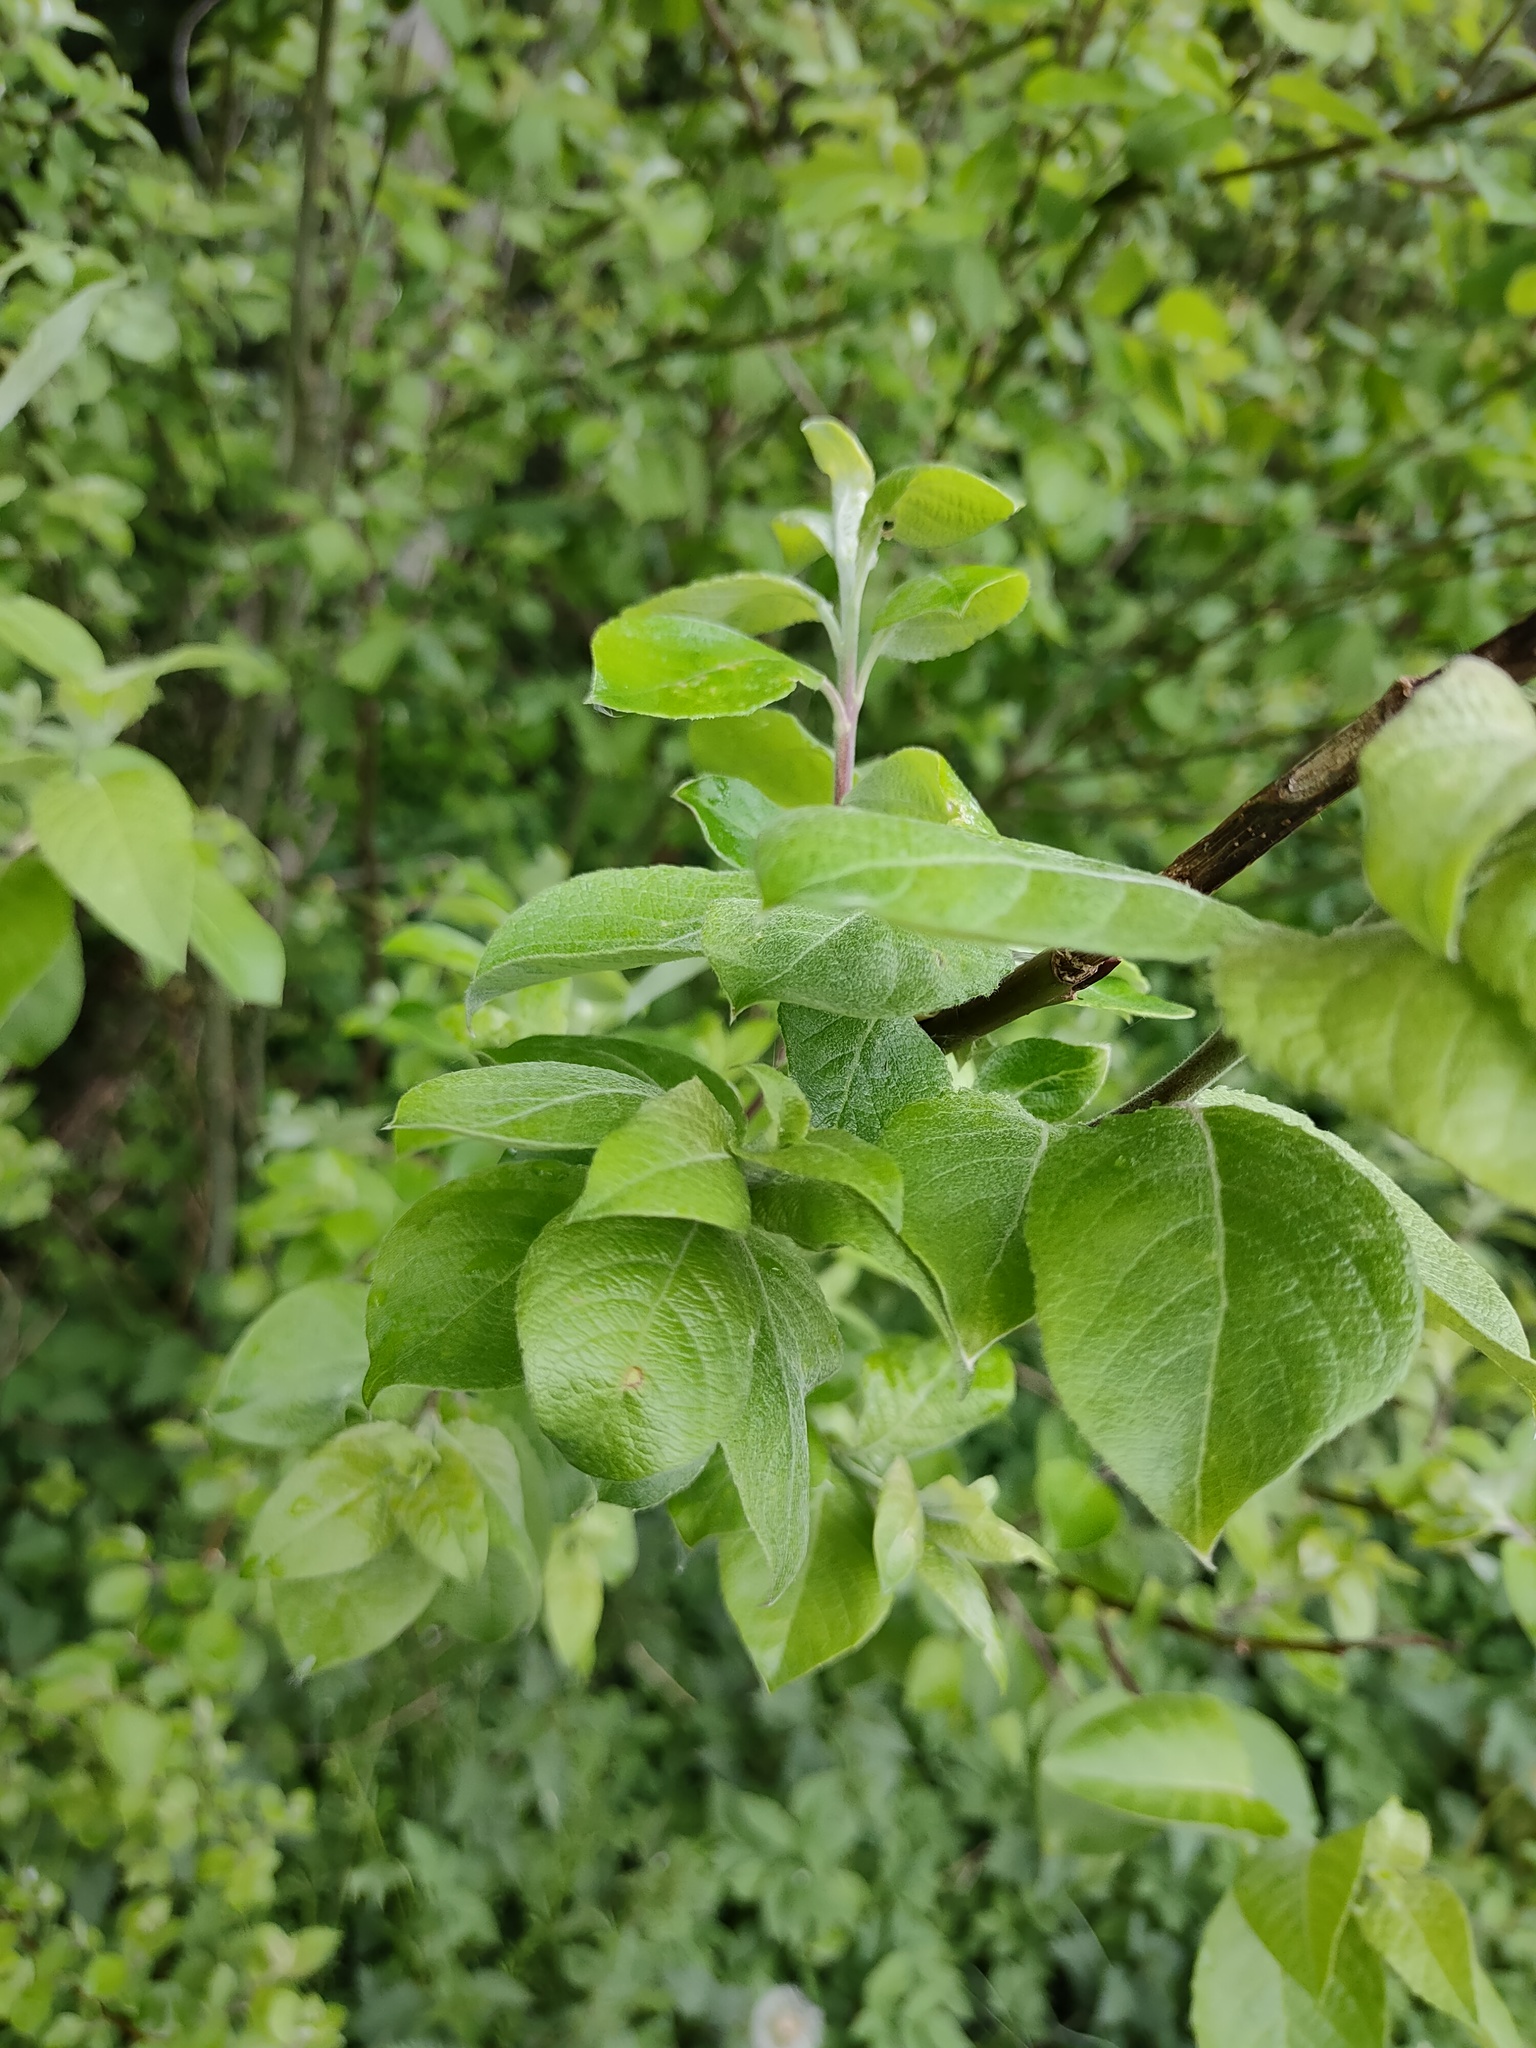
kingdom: Plantae
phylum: Tracheophyta
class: Magnoliopsida
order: Malpighiales
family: Salicaceae
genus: Salix
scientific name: Salix caprea
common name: Goat willow
